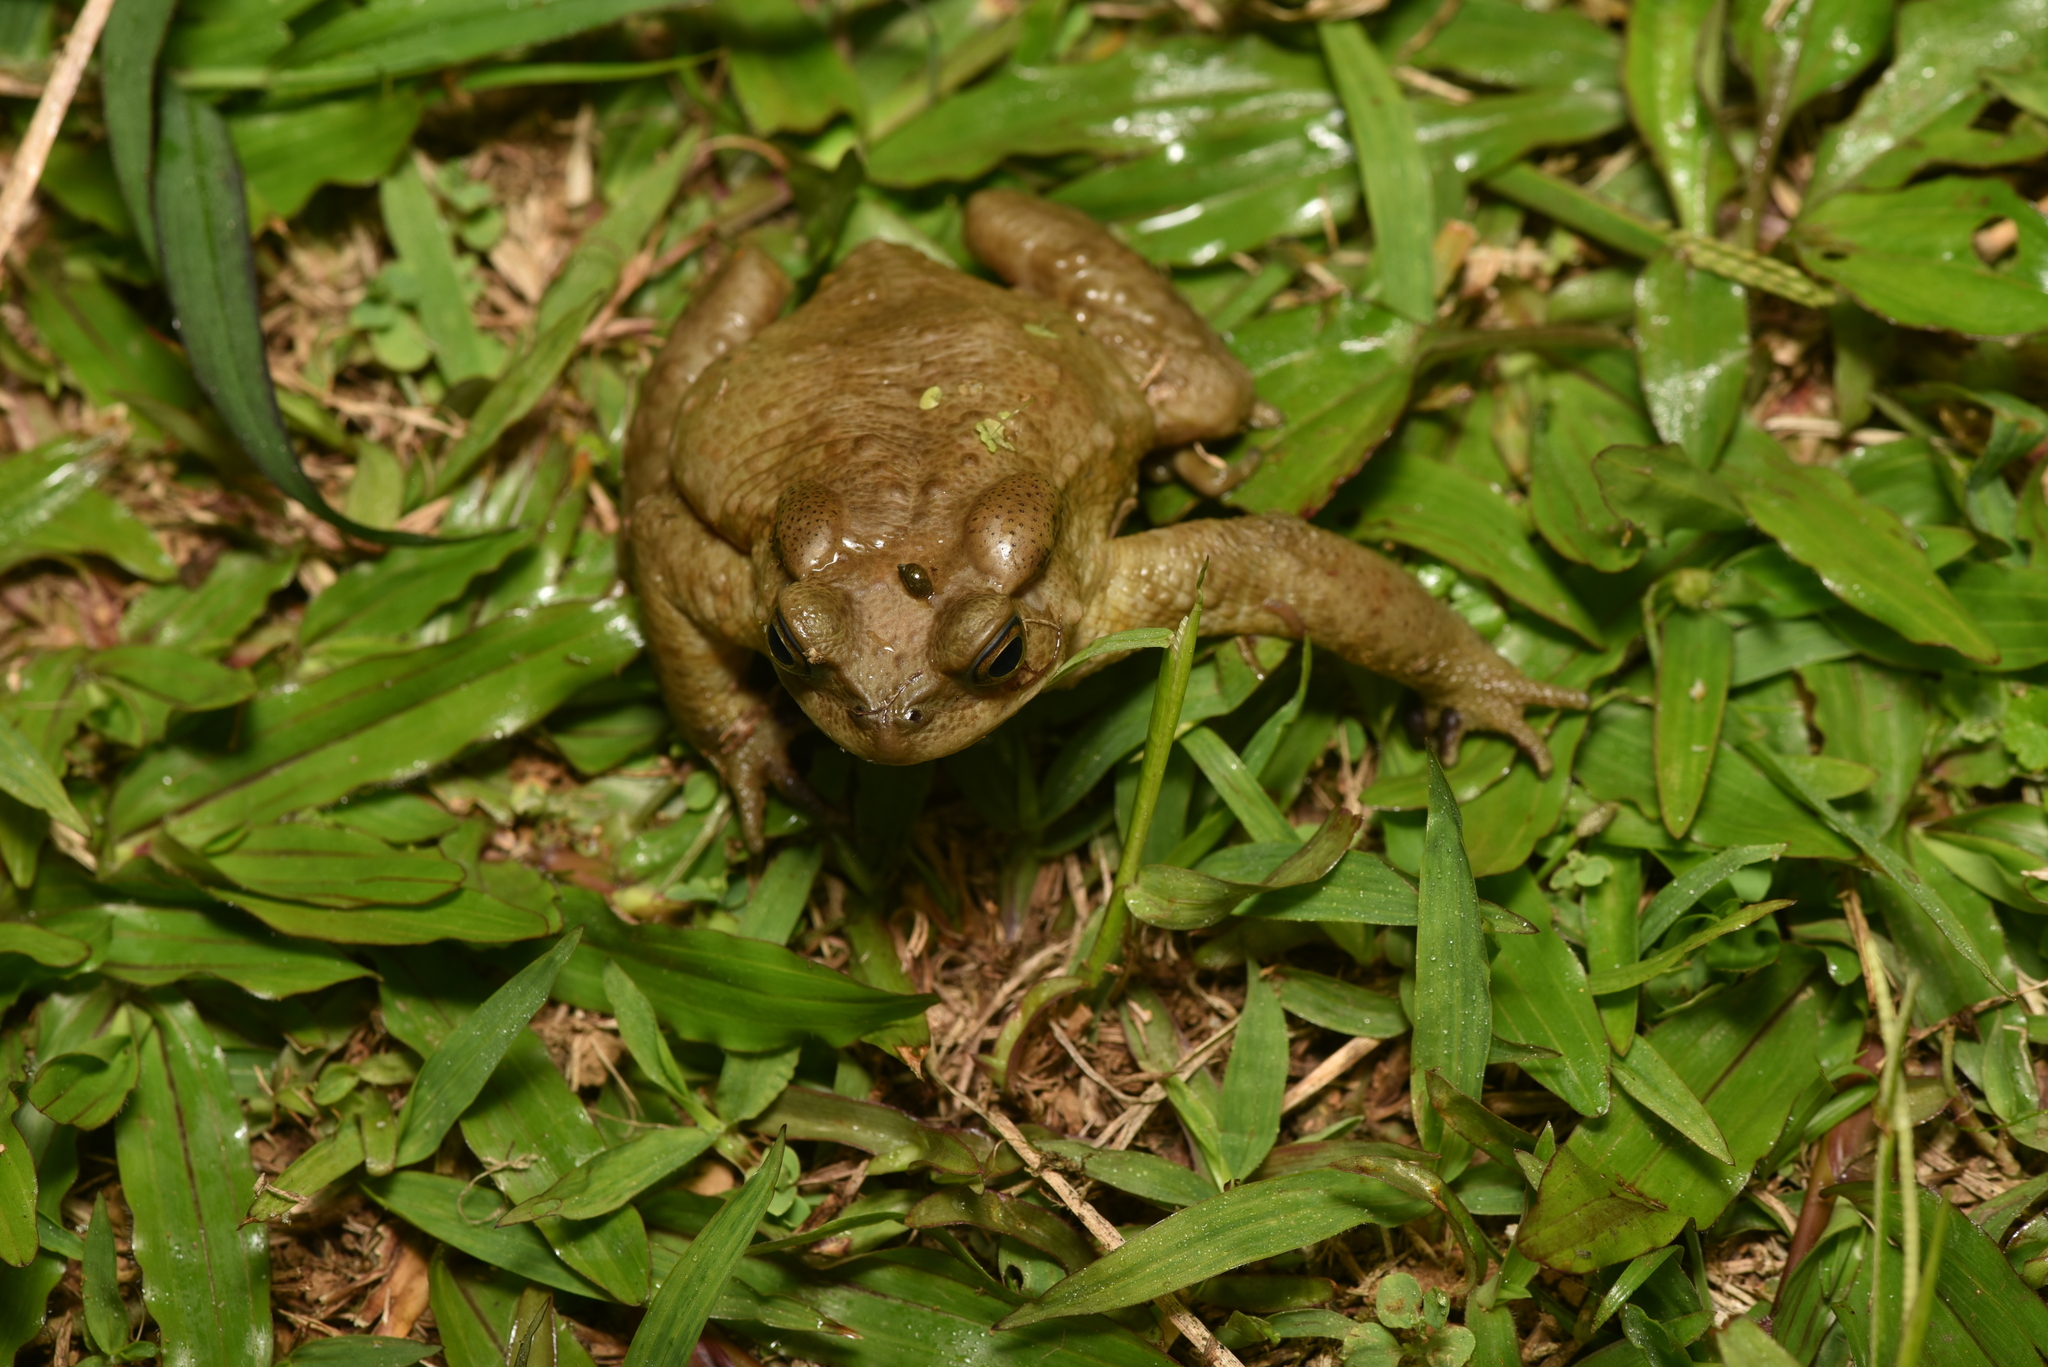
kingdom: Animalia
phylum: Chordata
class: Amphibia
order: Anura
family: Bufonidae
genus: Bufo
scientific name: Bufo bankorensis
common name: Bankor toad
